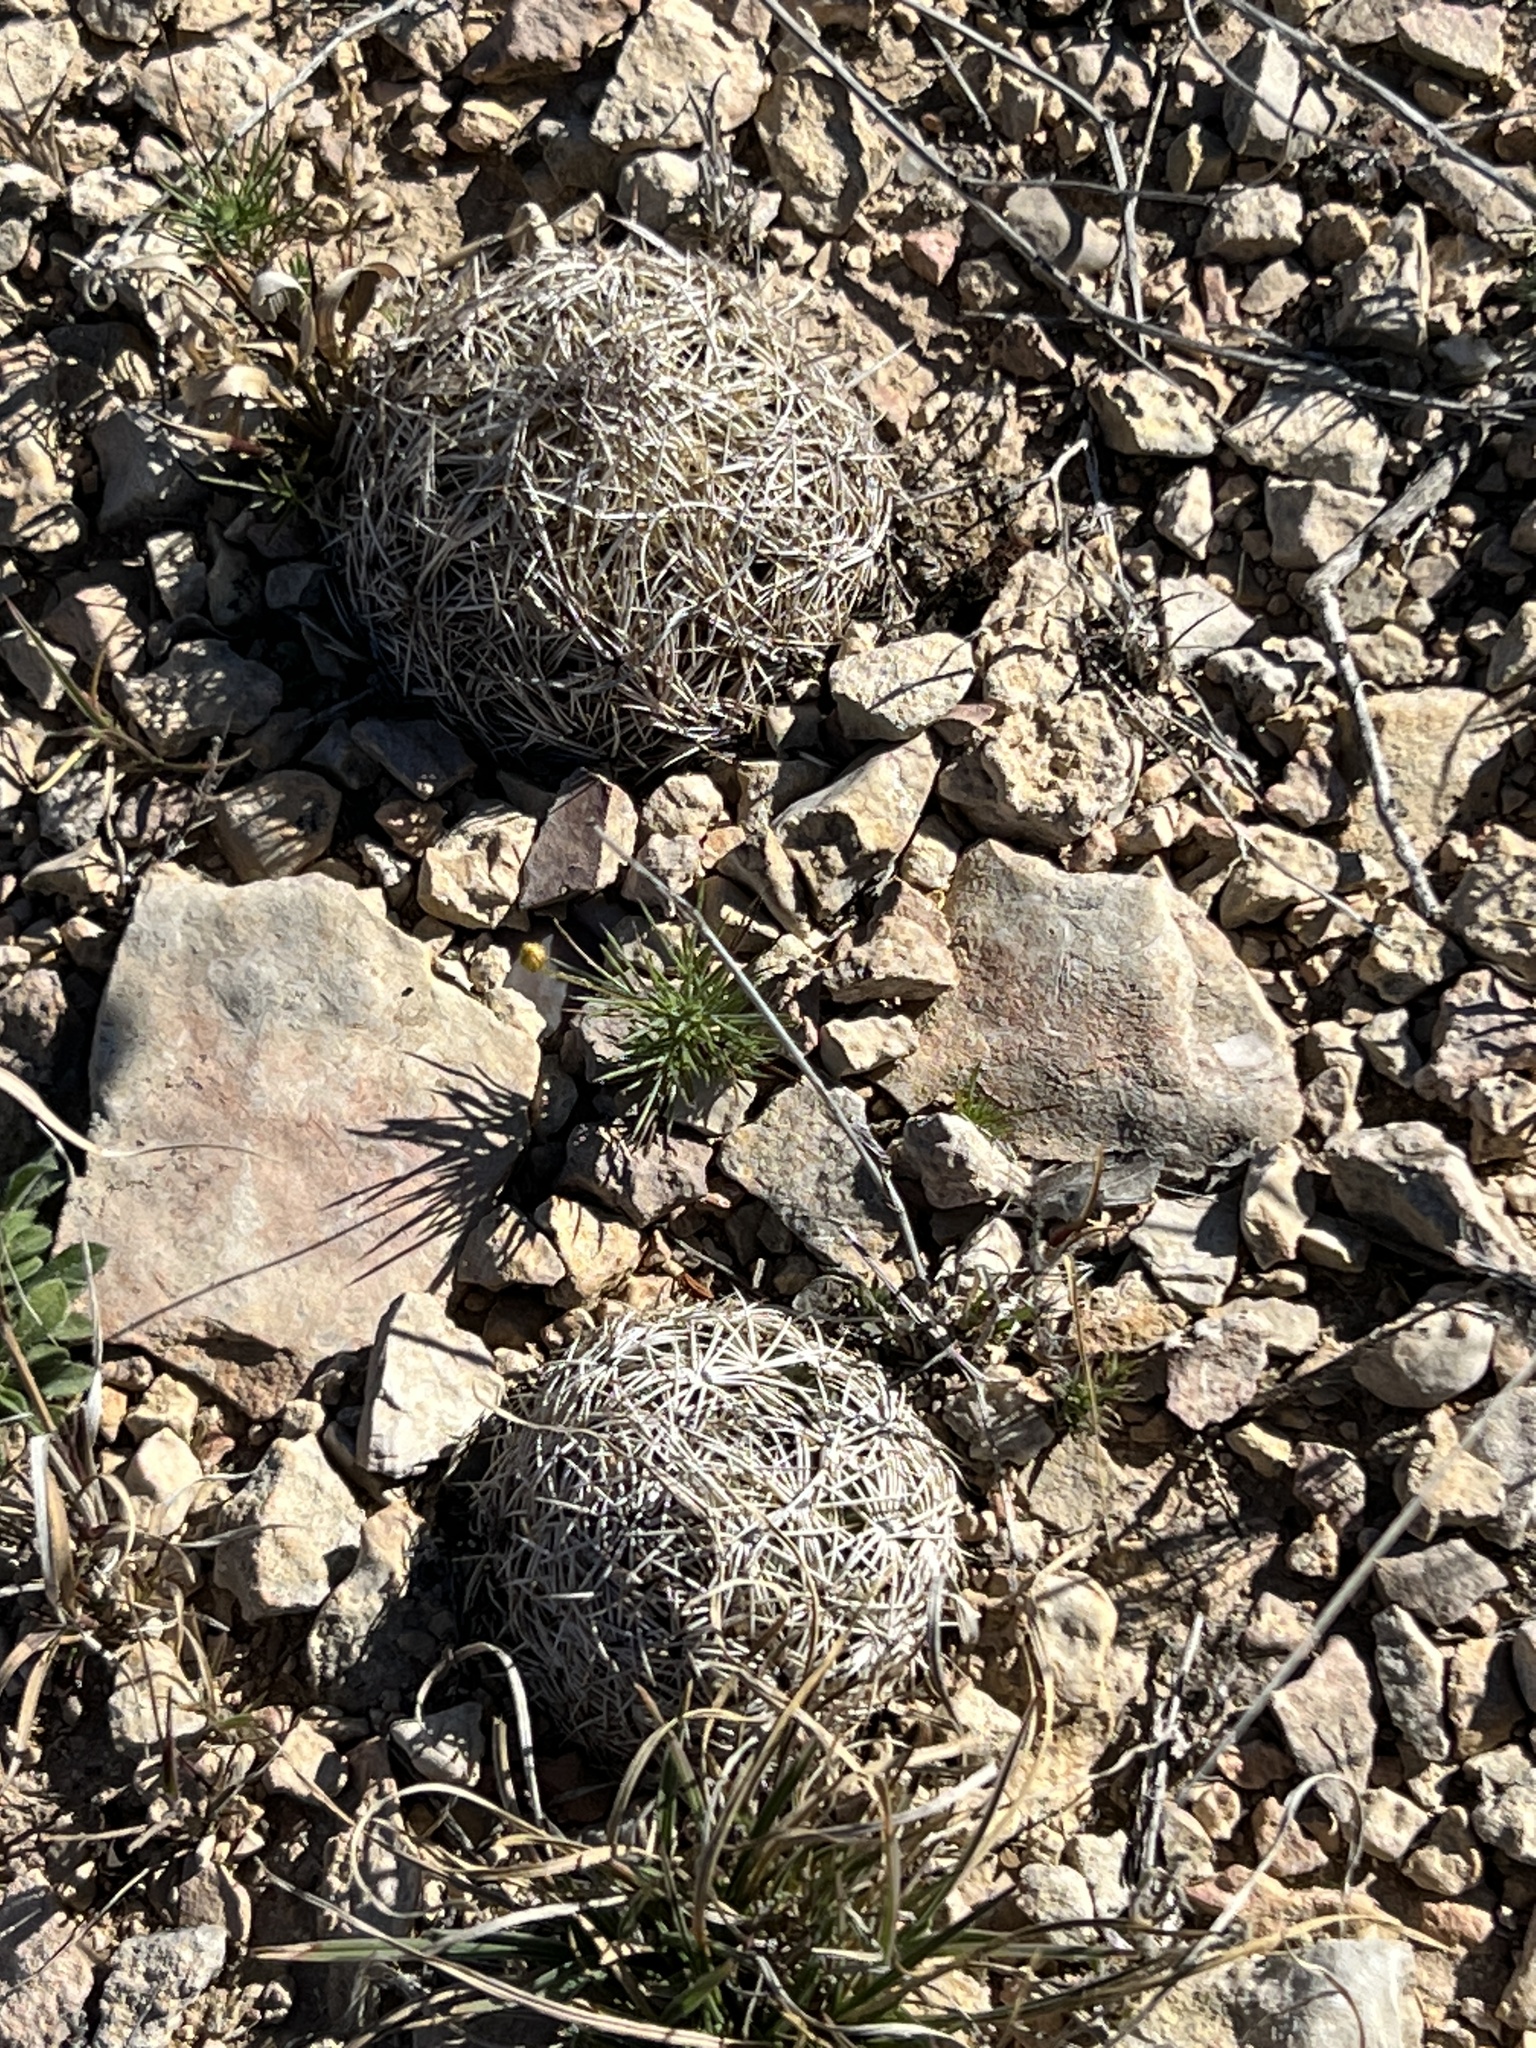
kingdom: Plantae
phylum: Tracheophyta
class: Magnoliopsida
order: Caryophyllales
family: Cactaceae
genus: Coryphantha
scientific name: Coryphantha echinus
